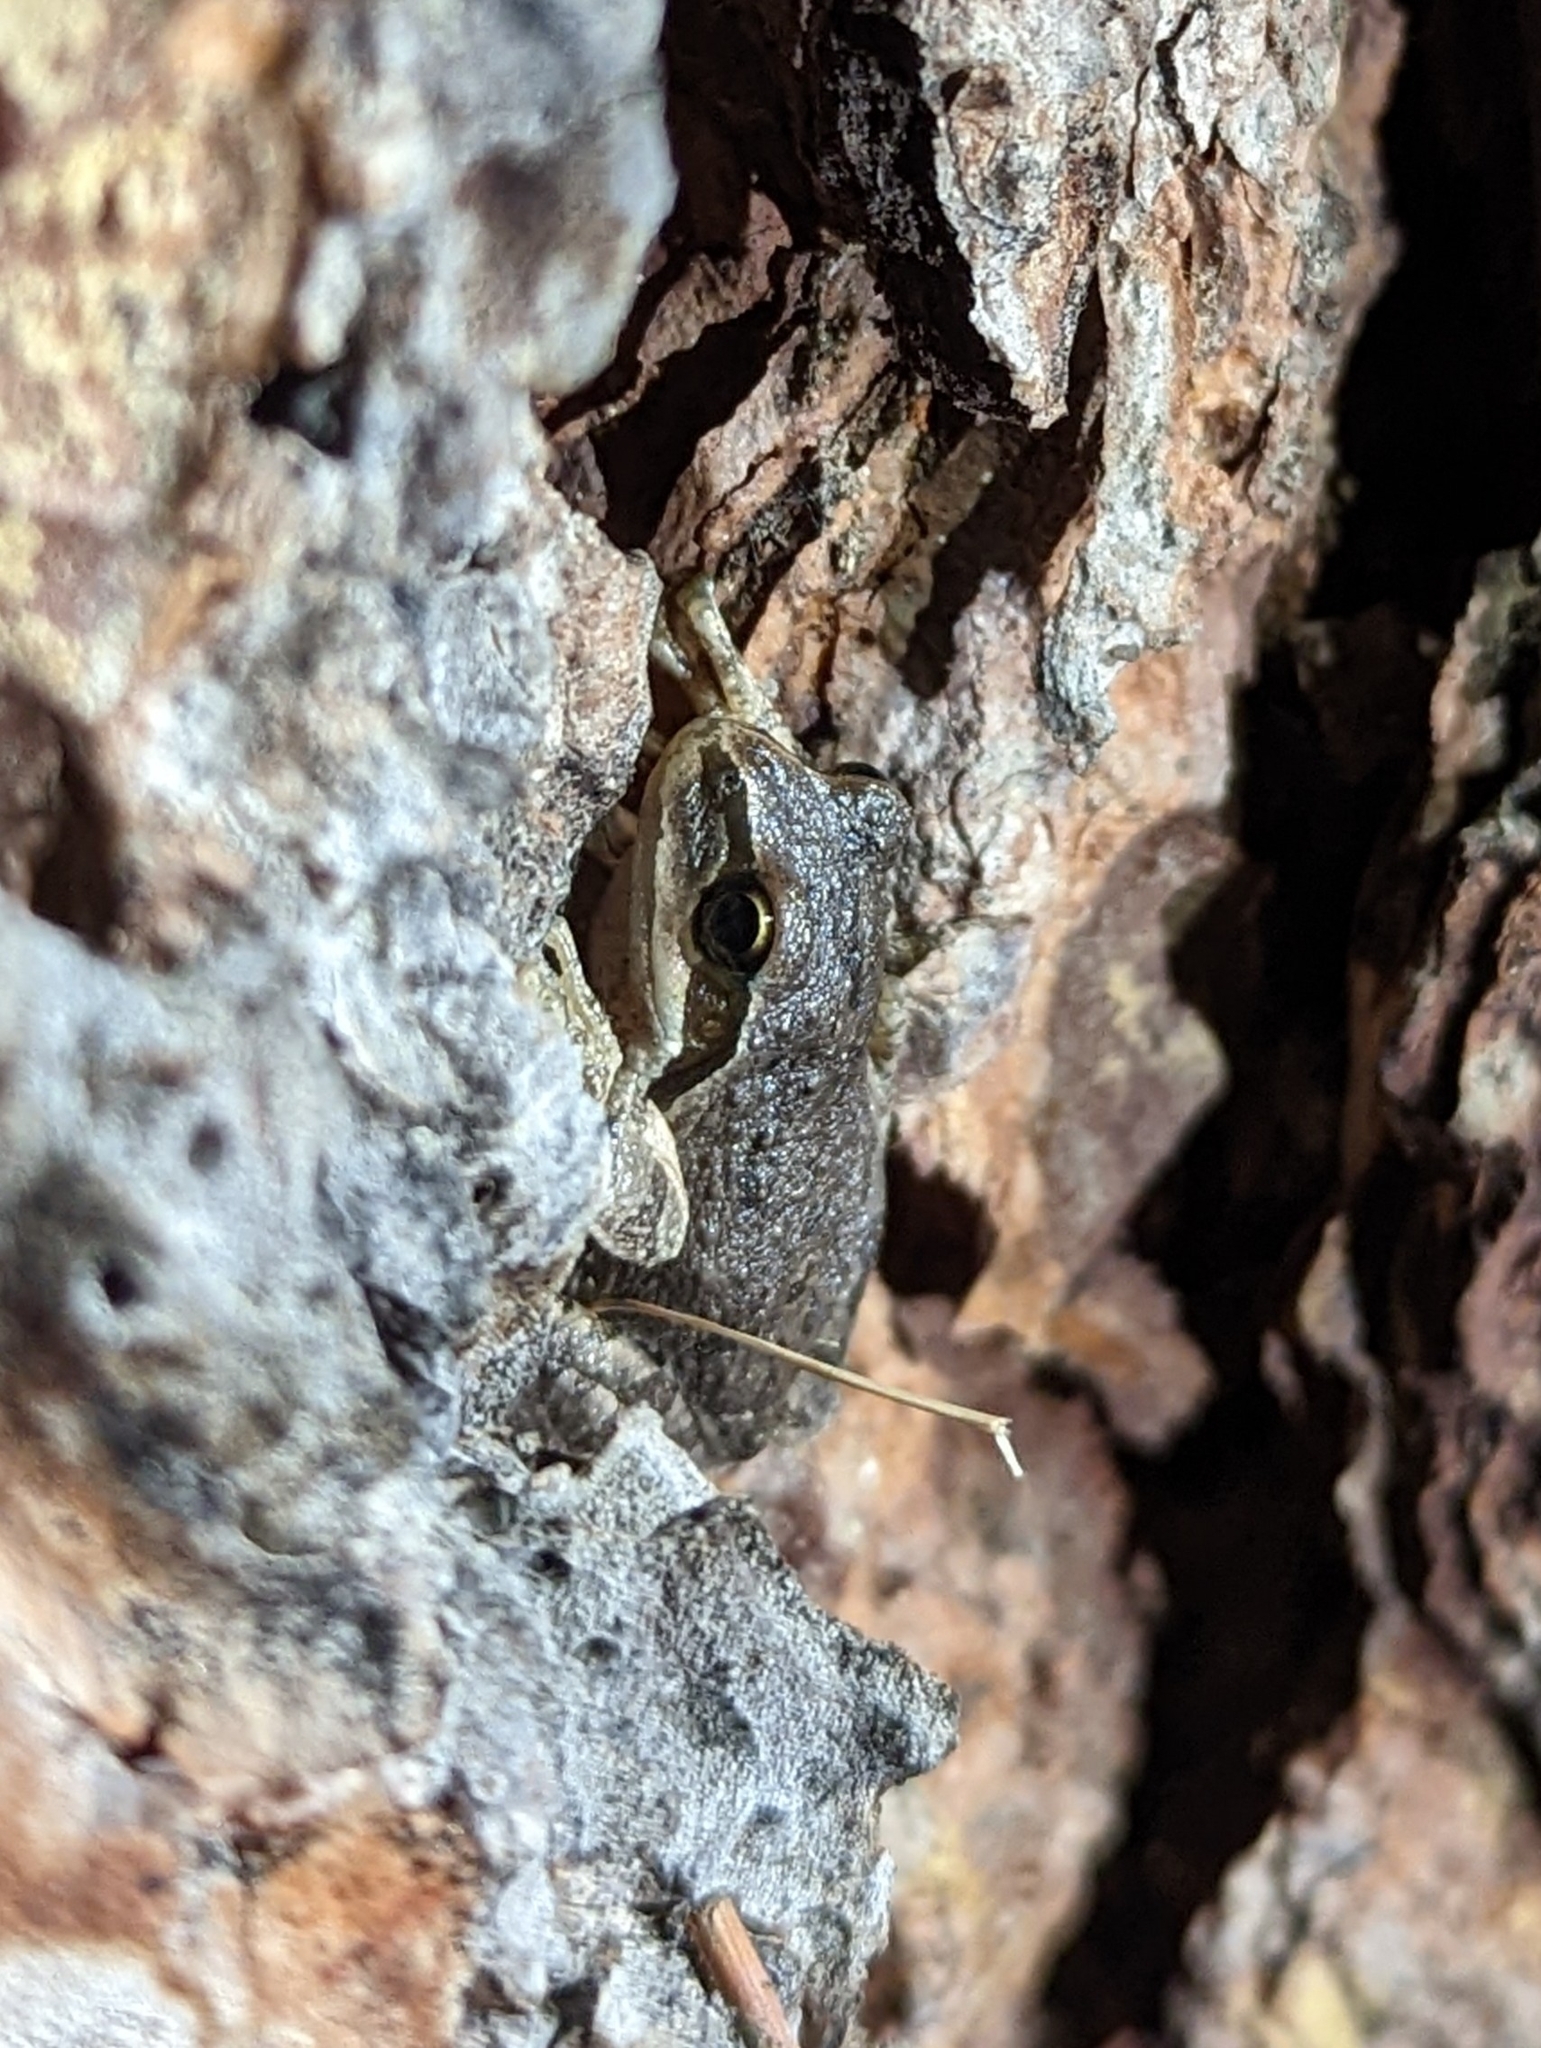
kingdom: Animalia
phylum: Chordata
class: Amphibia
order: Anura
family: Hylidae
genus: Pseudacris
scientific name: Pseudacris regilla
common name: Pacific chorus frog
